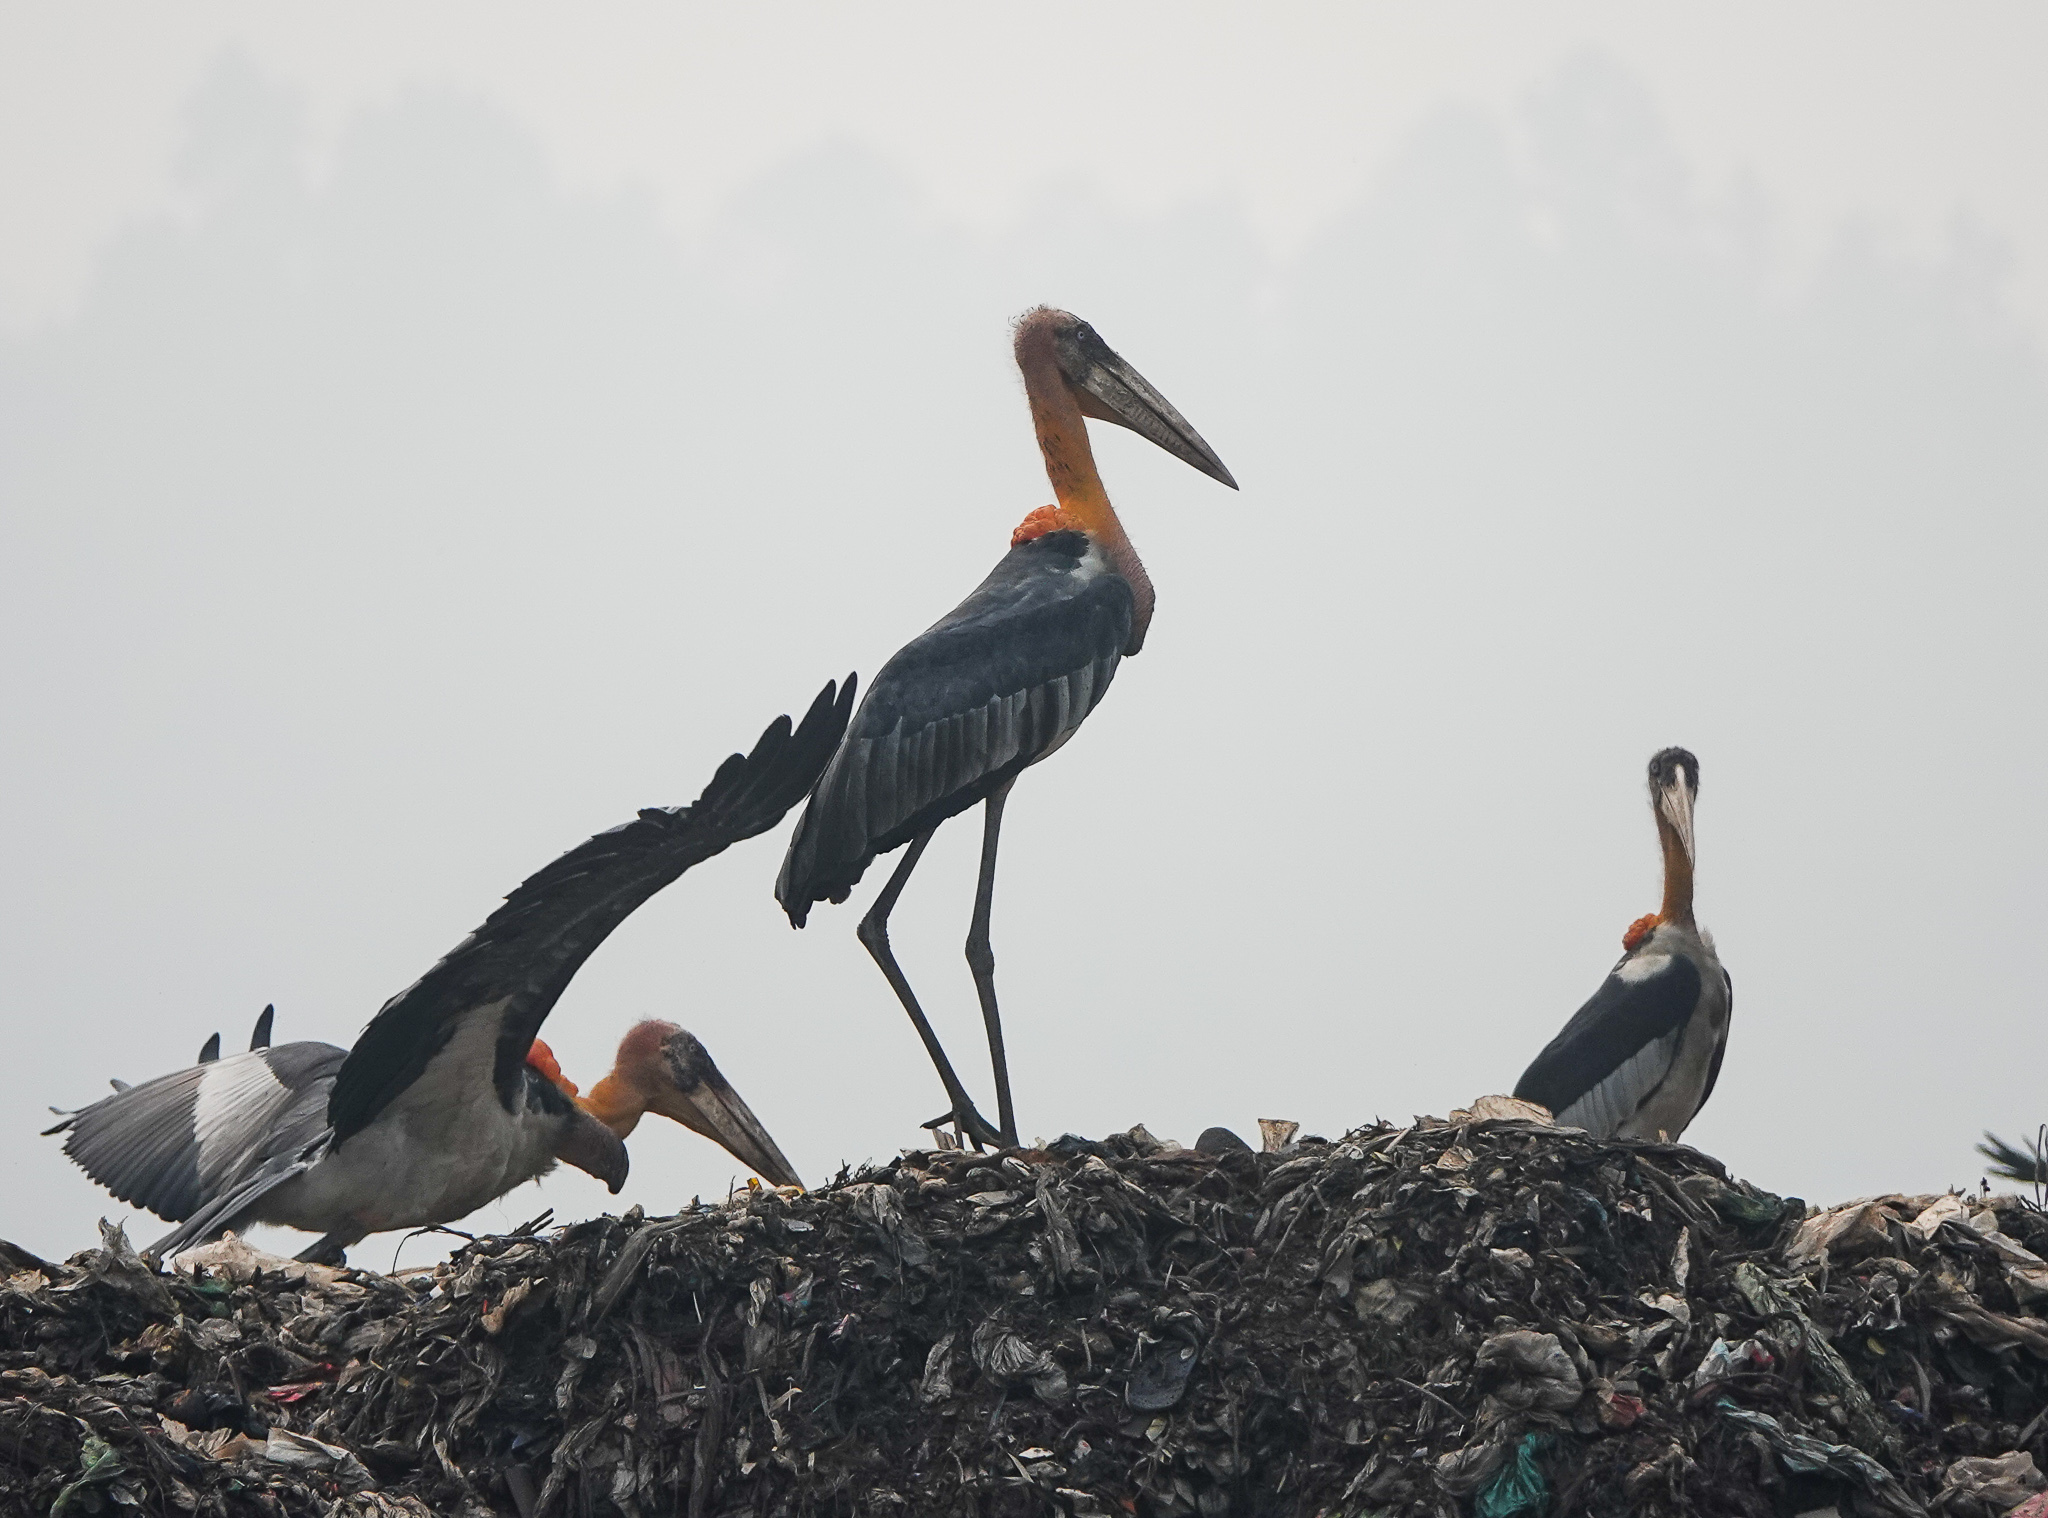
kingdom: Animalia
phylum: Chordata
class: Aves
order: Ciconiiformes
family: Ciconiidae
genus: Leptoptilos
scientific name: Leptoptilos dubius
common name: Greater adjutant
